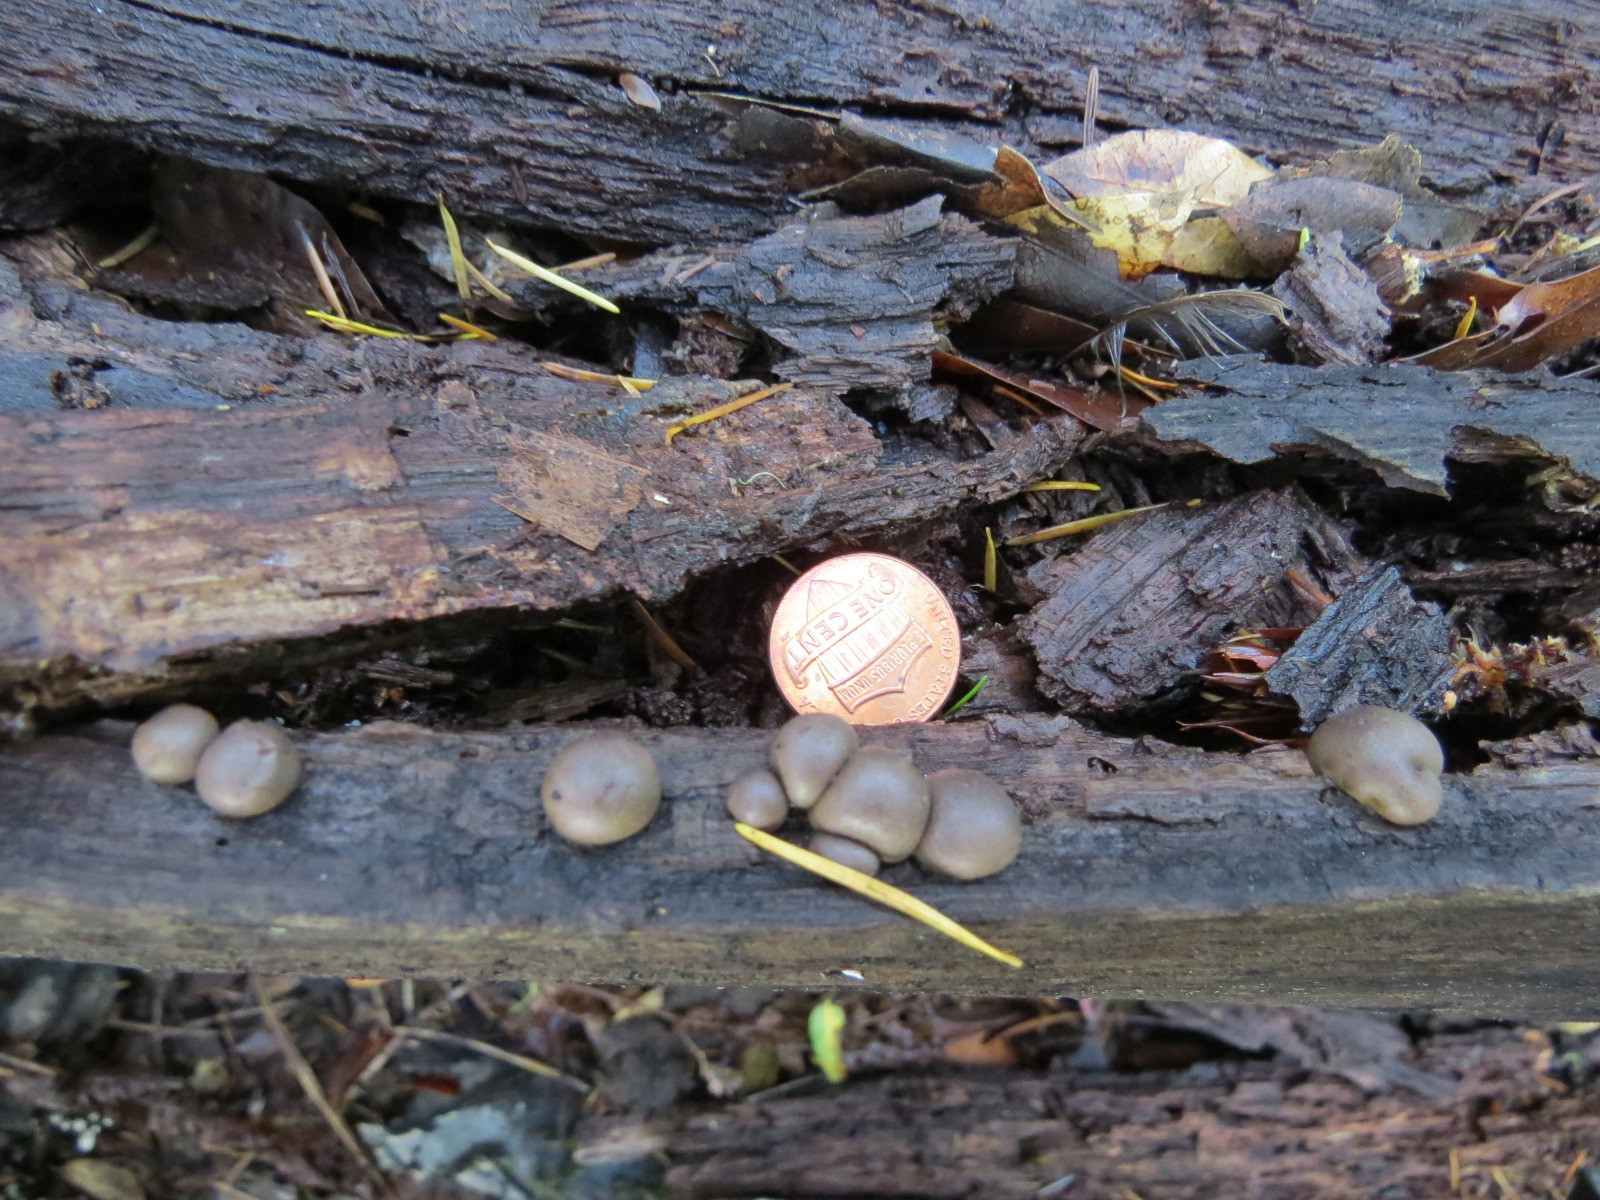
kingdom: Protozoa
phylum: Mycetozoa
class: Myxomycetes
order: Cribrariales
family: Tubiferaceae
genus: Lycogala
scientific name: Lycogala epidendrum
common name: Wolf's milk
